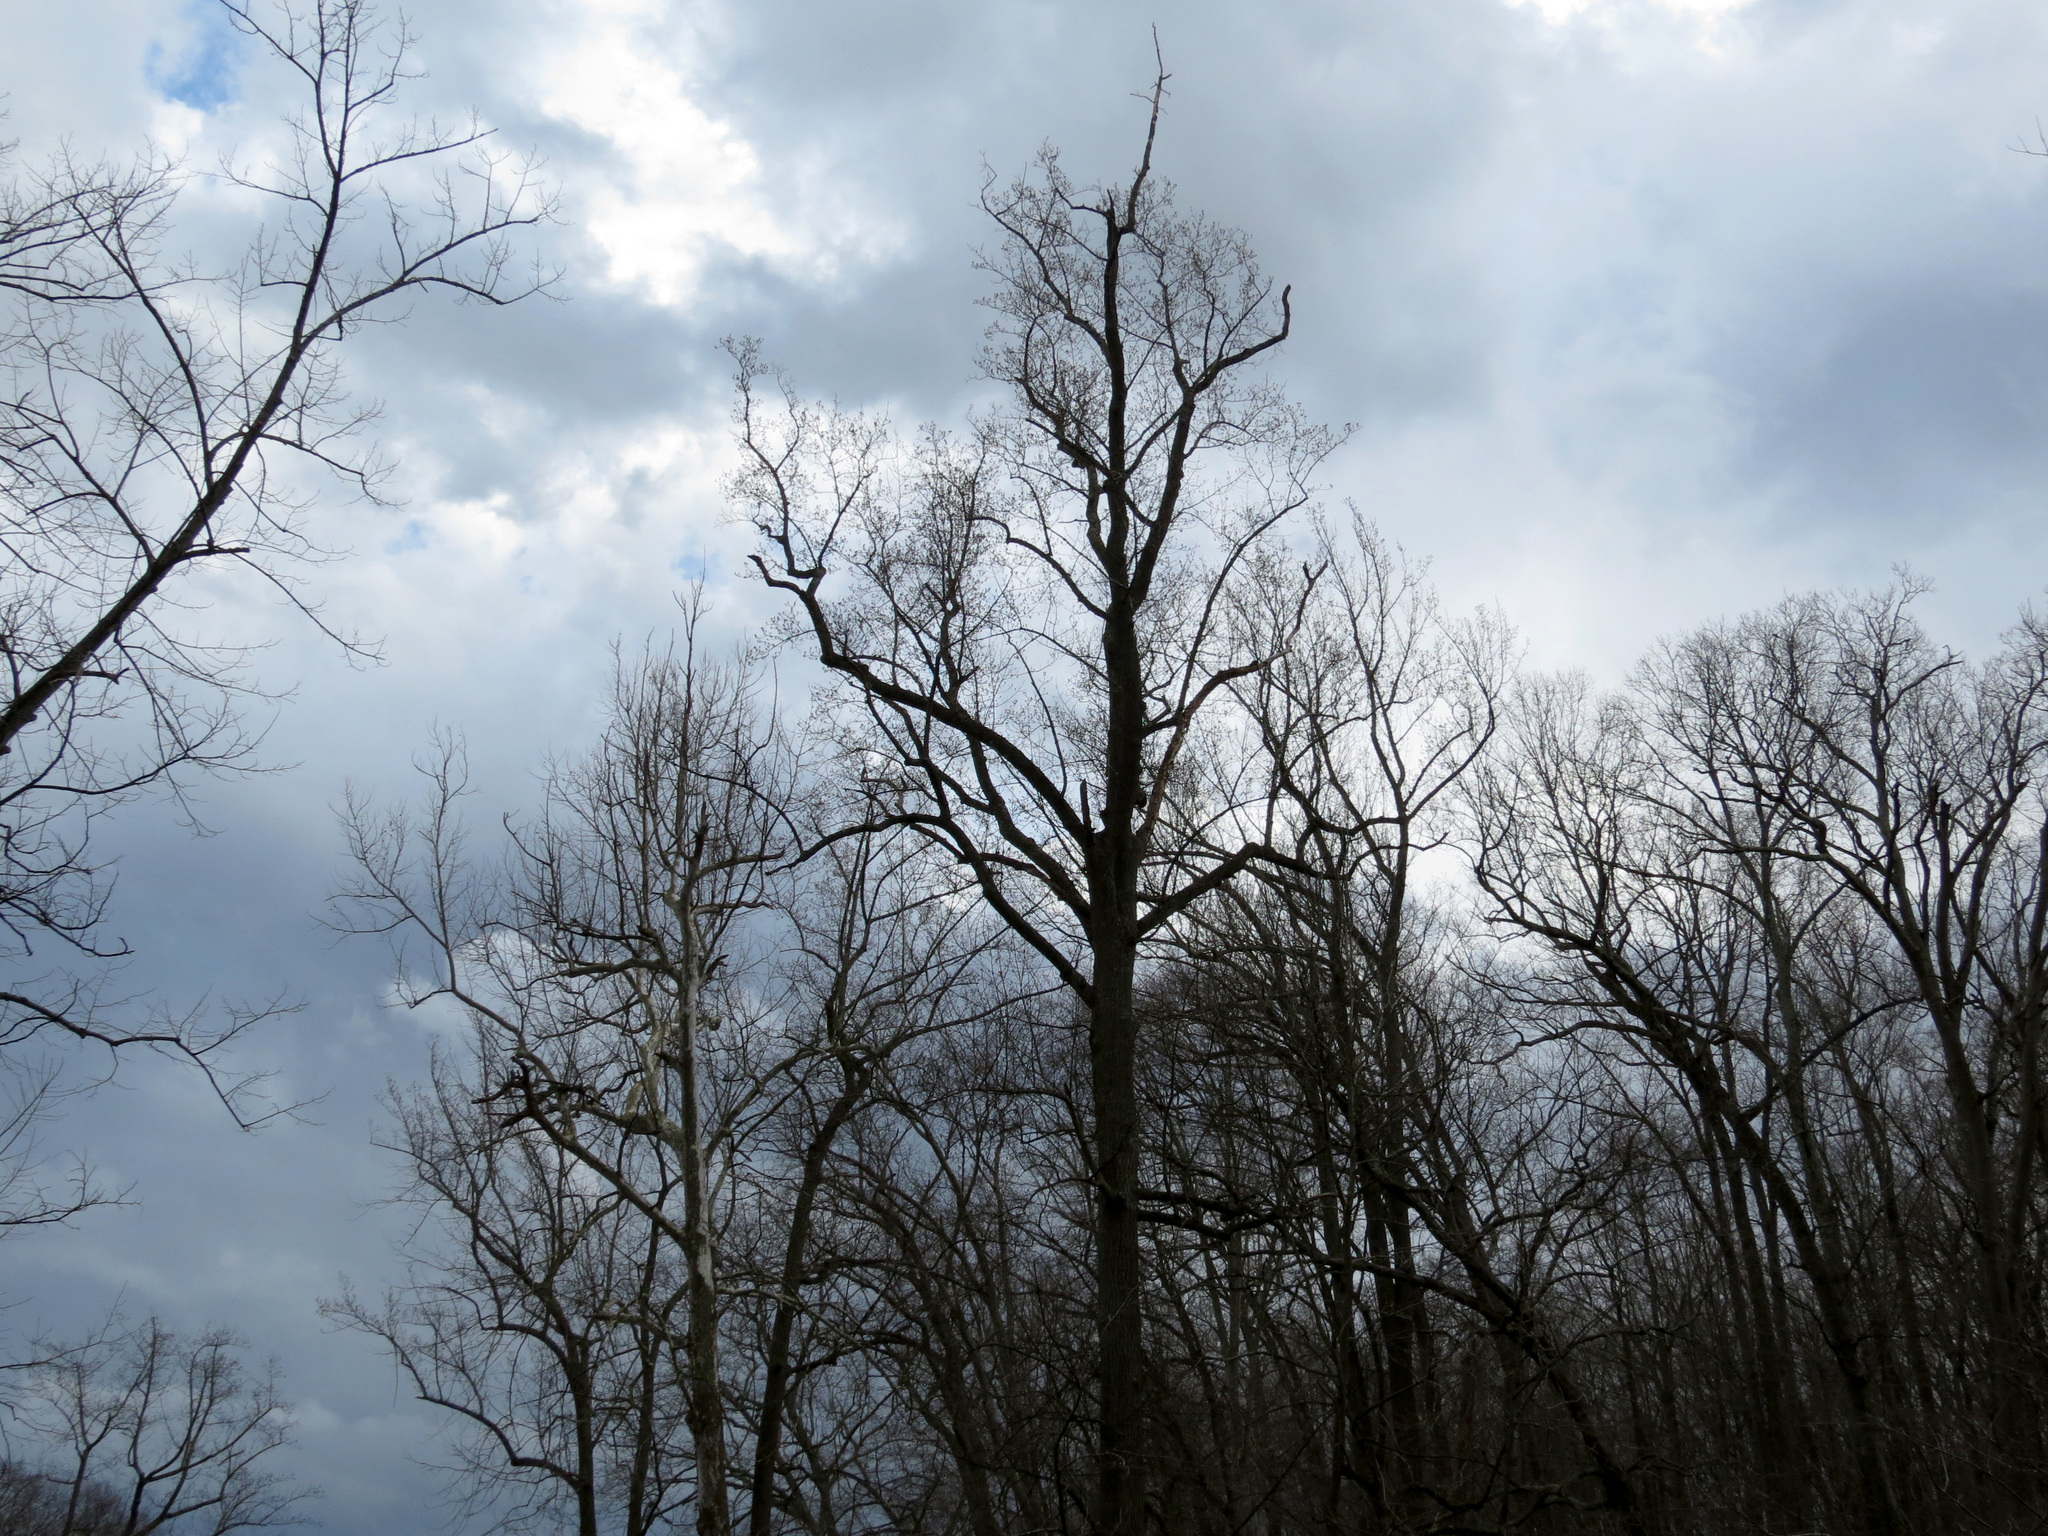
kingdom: Plantae
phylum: Tracheophyta
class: Magnoliopsida
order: Magnoliales
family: Magnoliaceae
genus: Liriodendron
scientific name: Liriodendron tulipifera
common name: Tulip tree
